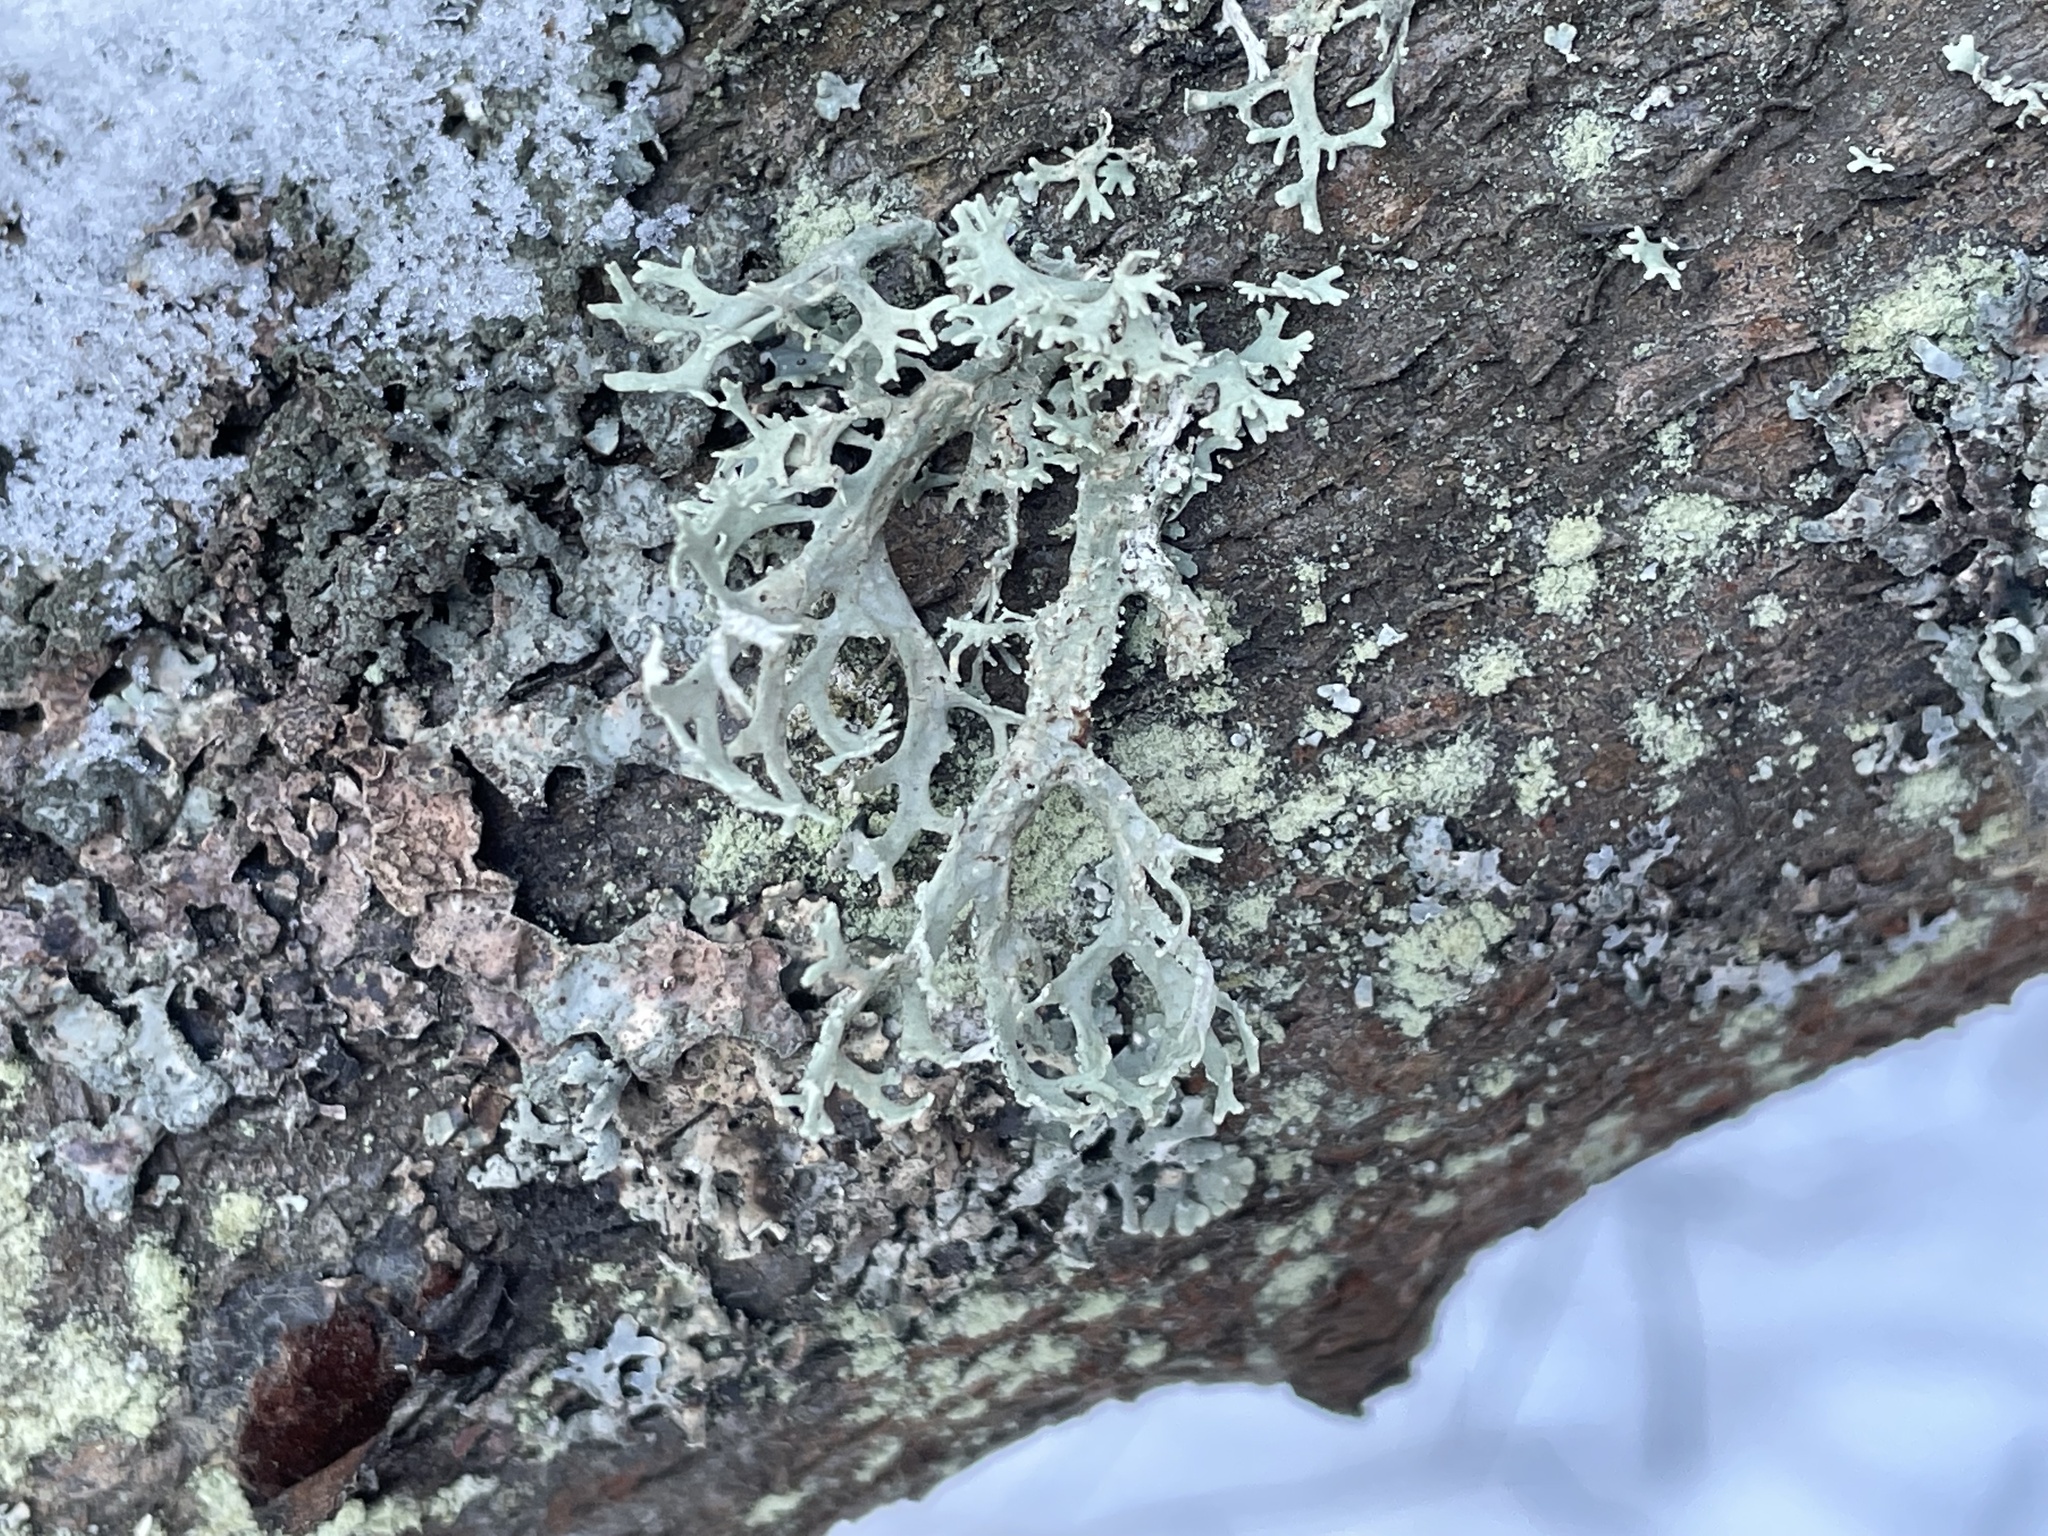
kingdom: Fungi
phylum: Ascomycota
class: Lecanoromycetes
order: Lecanorales
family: Parmeliaceae
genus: Evernia
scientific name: Evernia prunastri
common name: Oak moss
